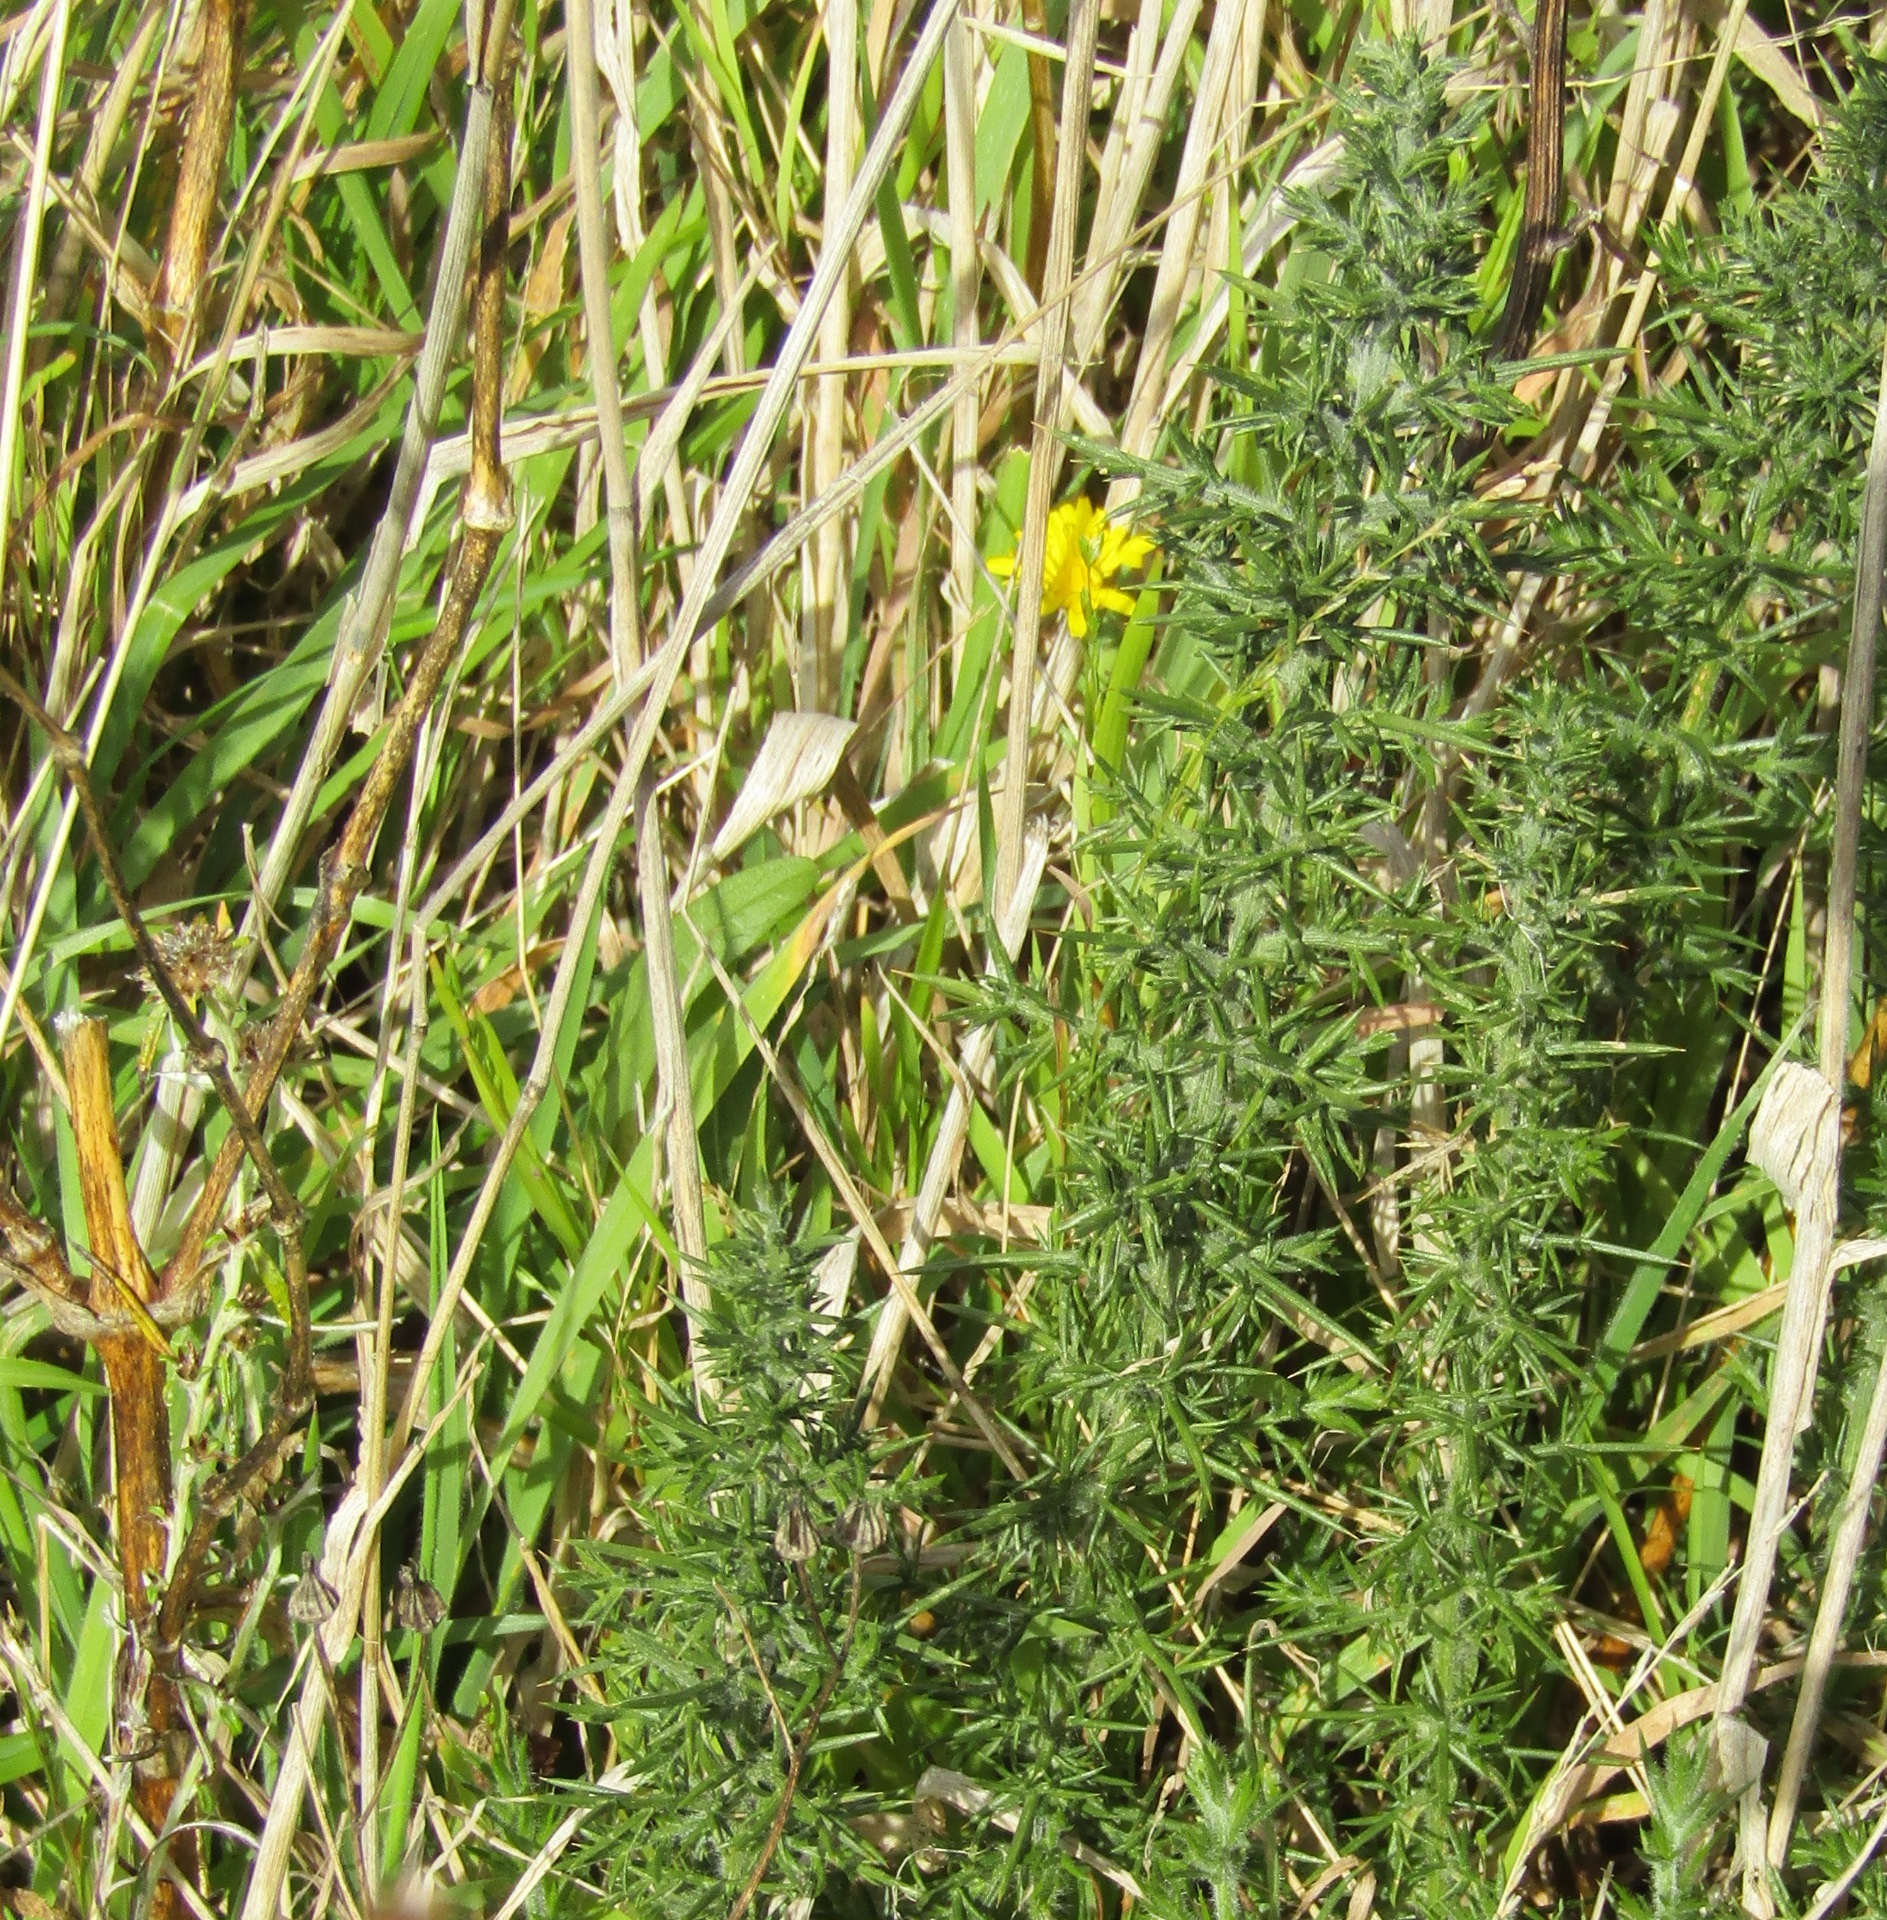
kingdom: Plantae
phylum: Tracheophyta
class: Magnoliopsida
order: Fabales
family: Fabaceae
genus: Ulex
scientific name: Ulex europaeus
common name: Common gorse
